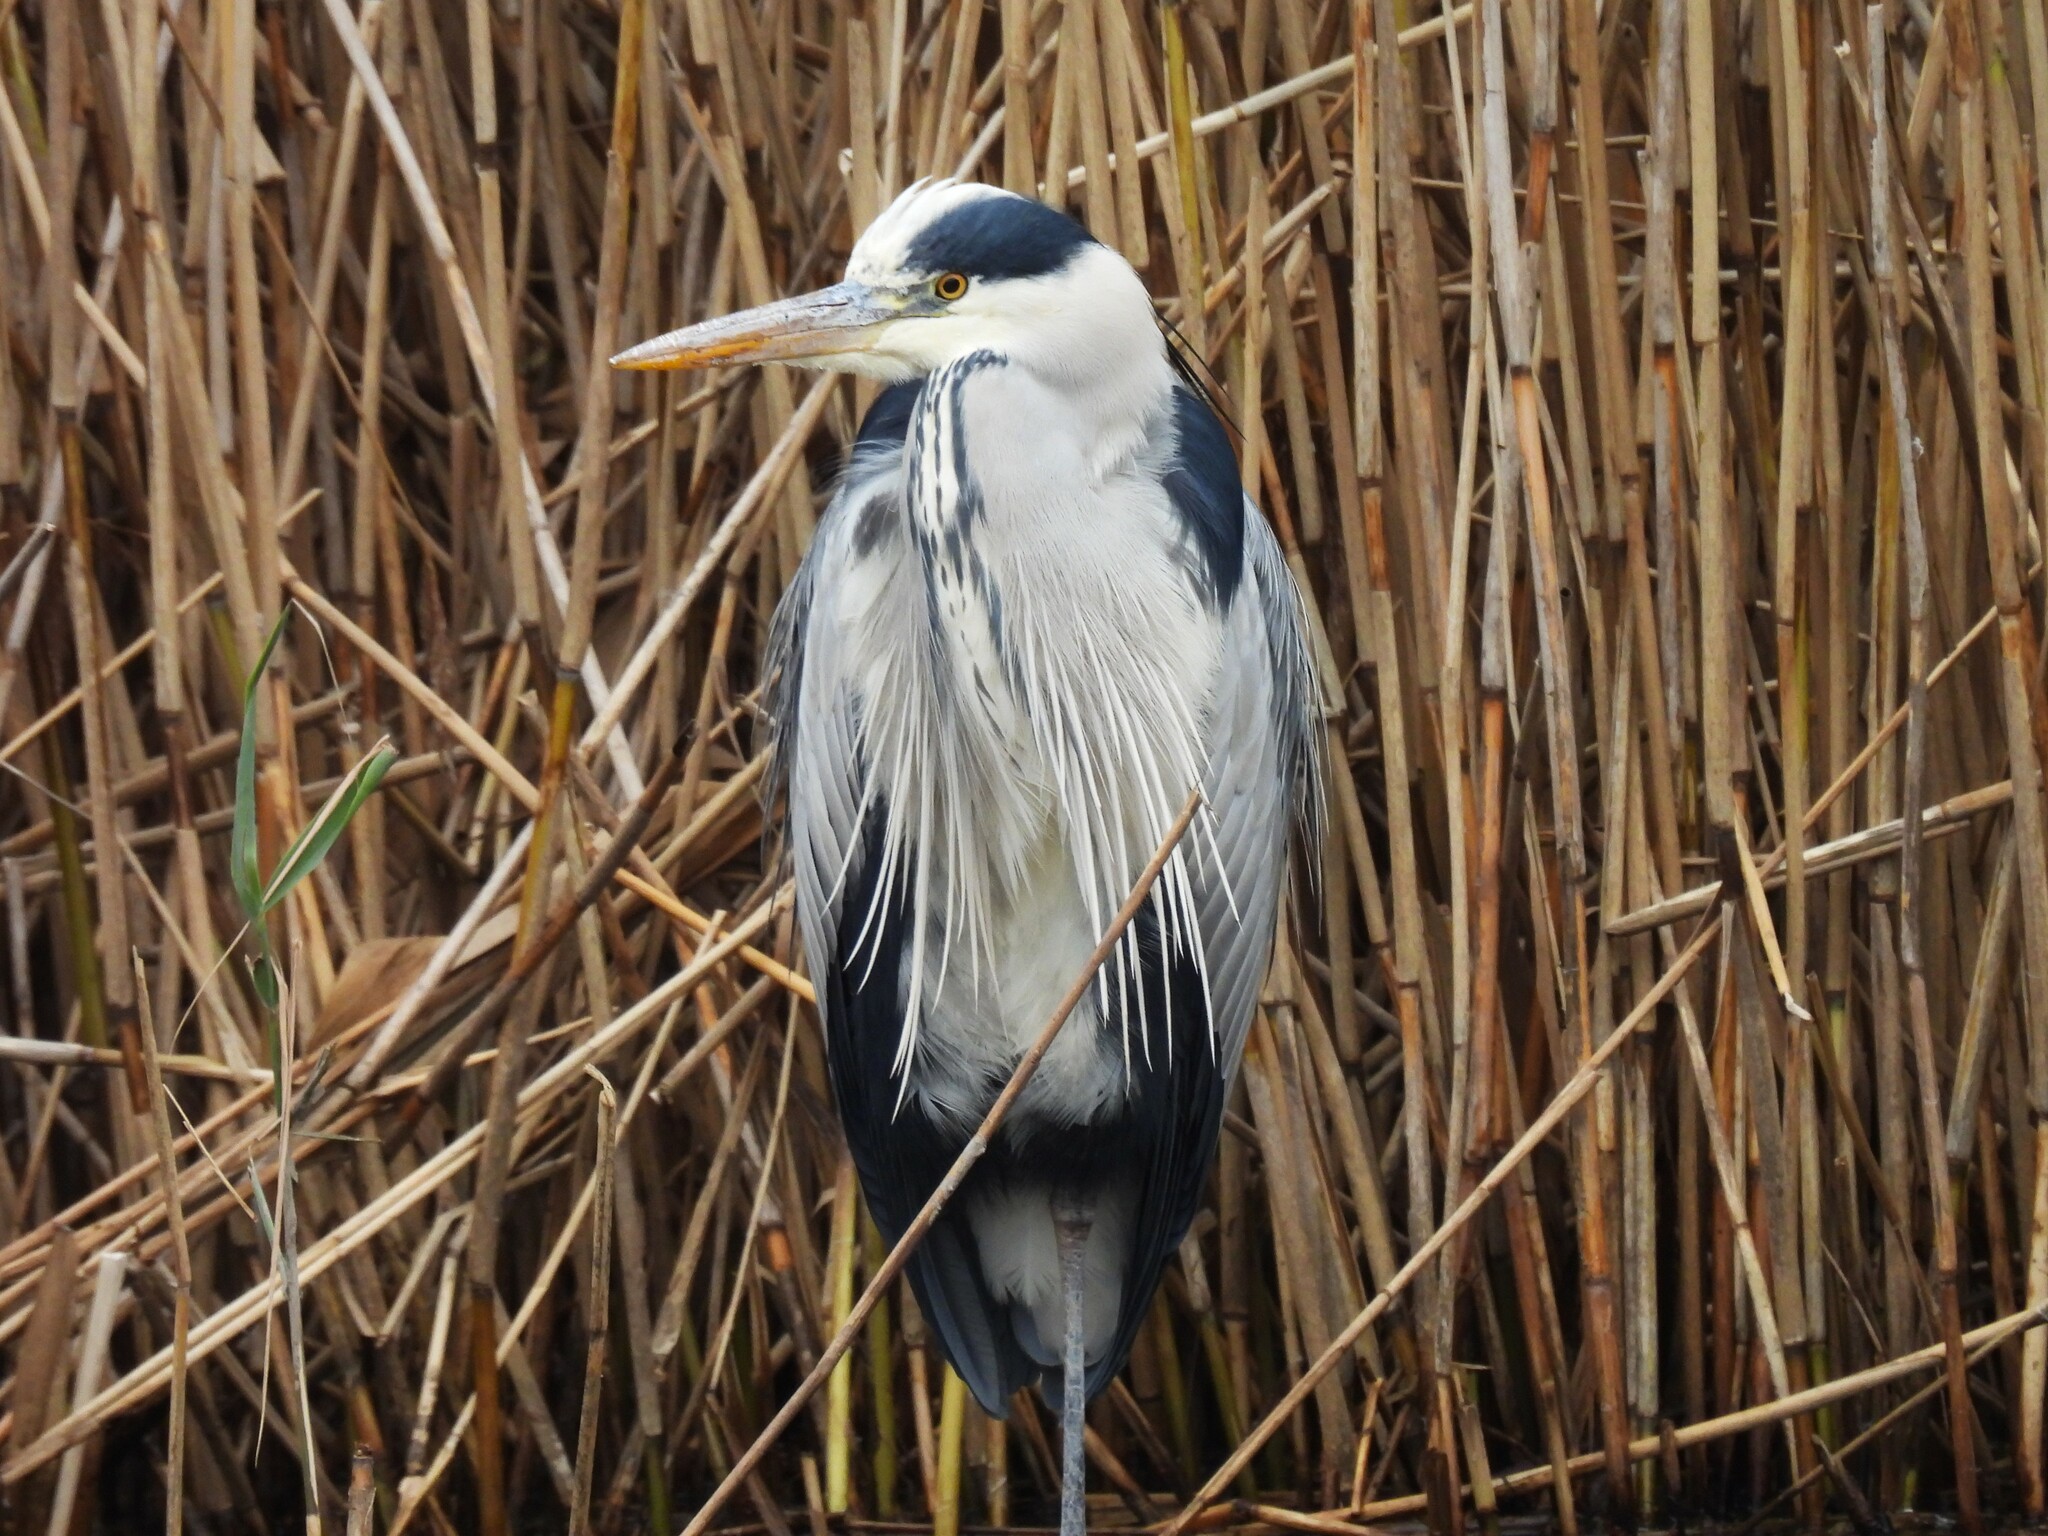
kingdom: Animalia
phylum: Chordata
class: Aves
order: Pelecaniformes
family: Ardeidae
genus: Ardea
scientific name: Ardea cinerea
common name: Grey heron
